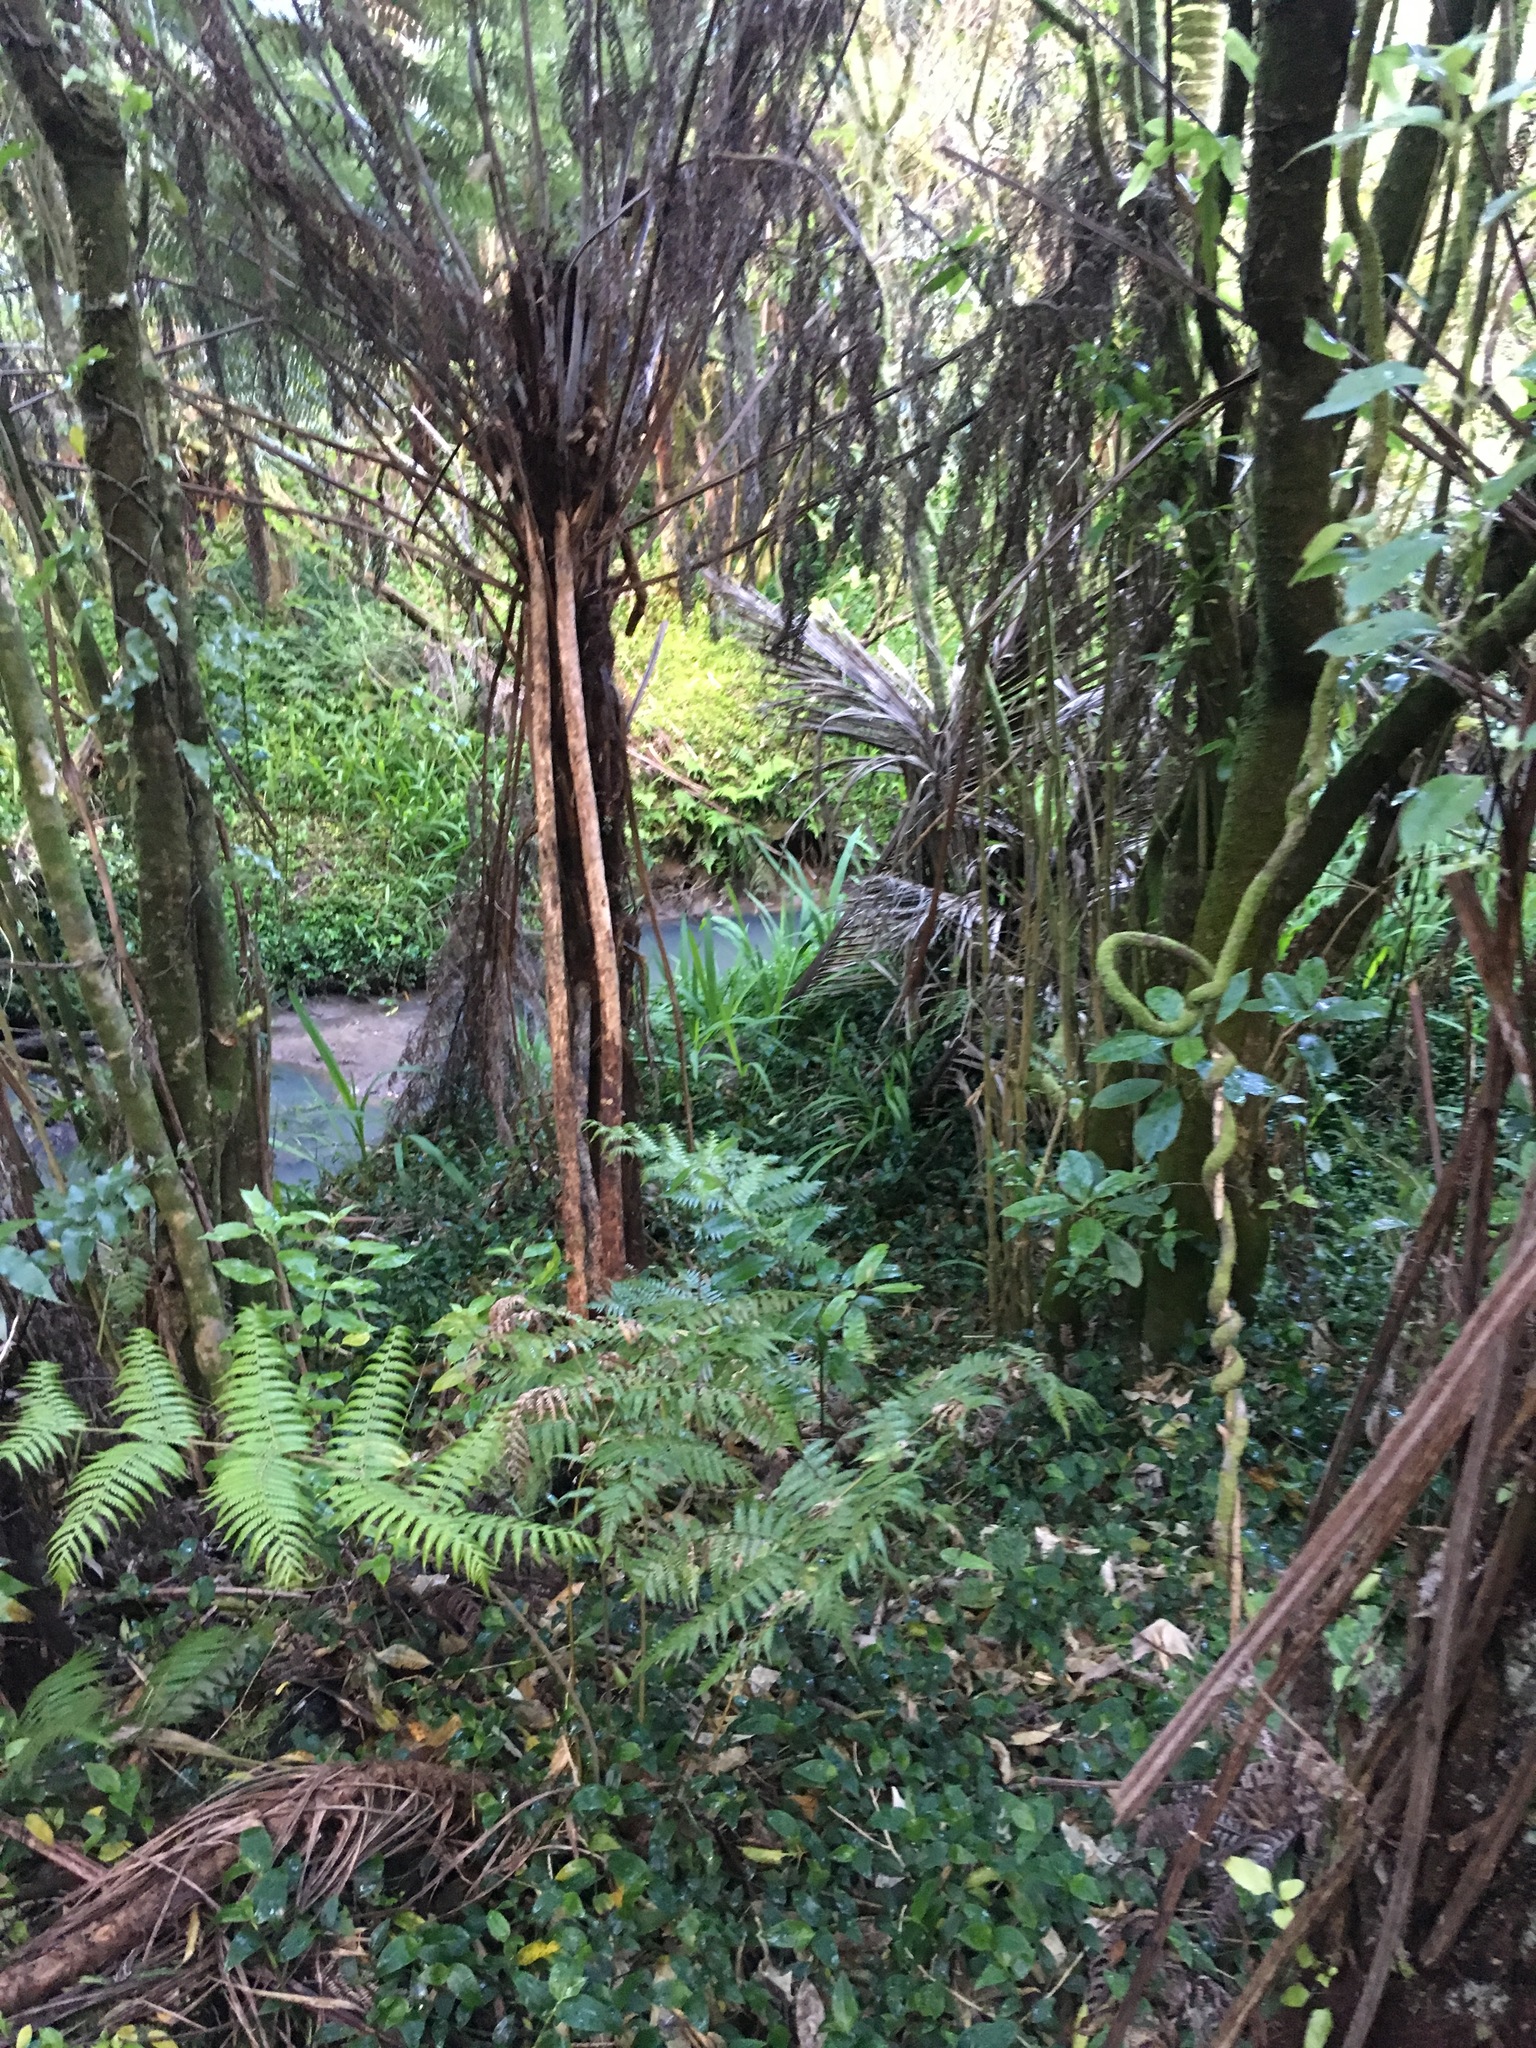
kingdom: Plantae
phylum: Tracheophyta
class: Liliopsida
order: Commelinales
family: Commelinaceae
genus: Tradescantia
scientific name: Tradescantia fluminensis
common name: Wandering-jew
